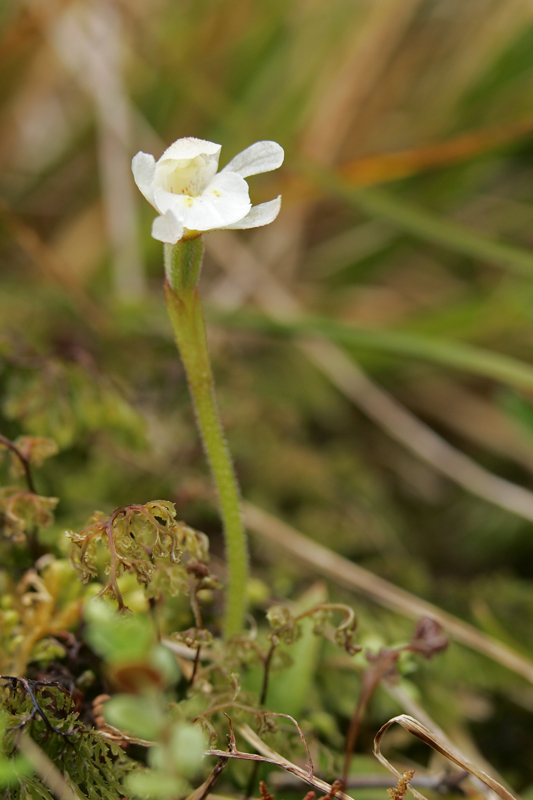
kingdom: Plantae
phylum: Tracheophyta
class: Liliopsida
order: Asparagales
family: Orchidaceae
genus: Aporostylis
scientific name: Aporostylis bifolia
